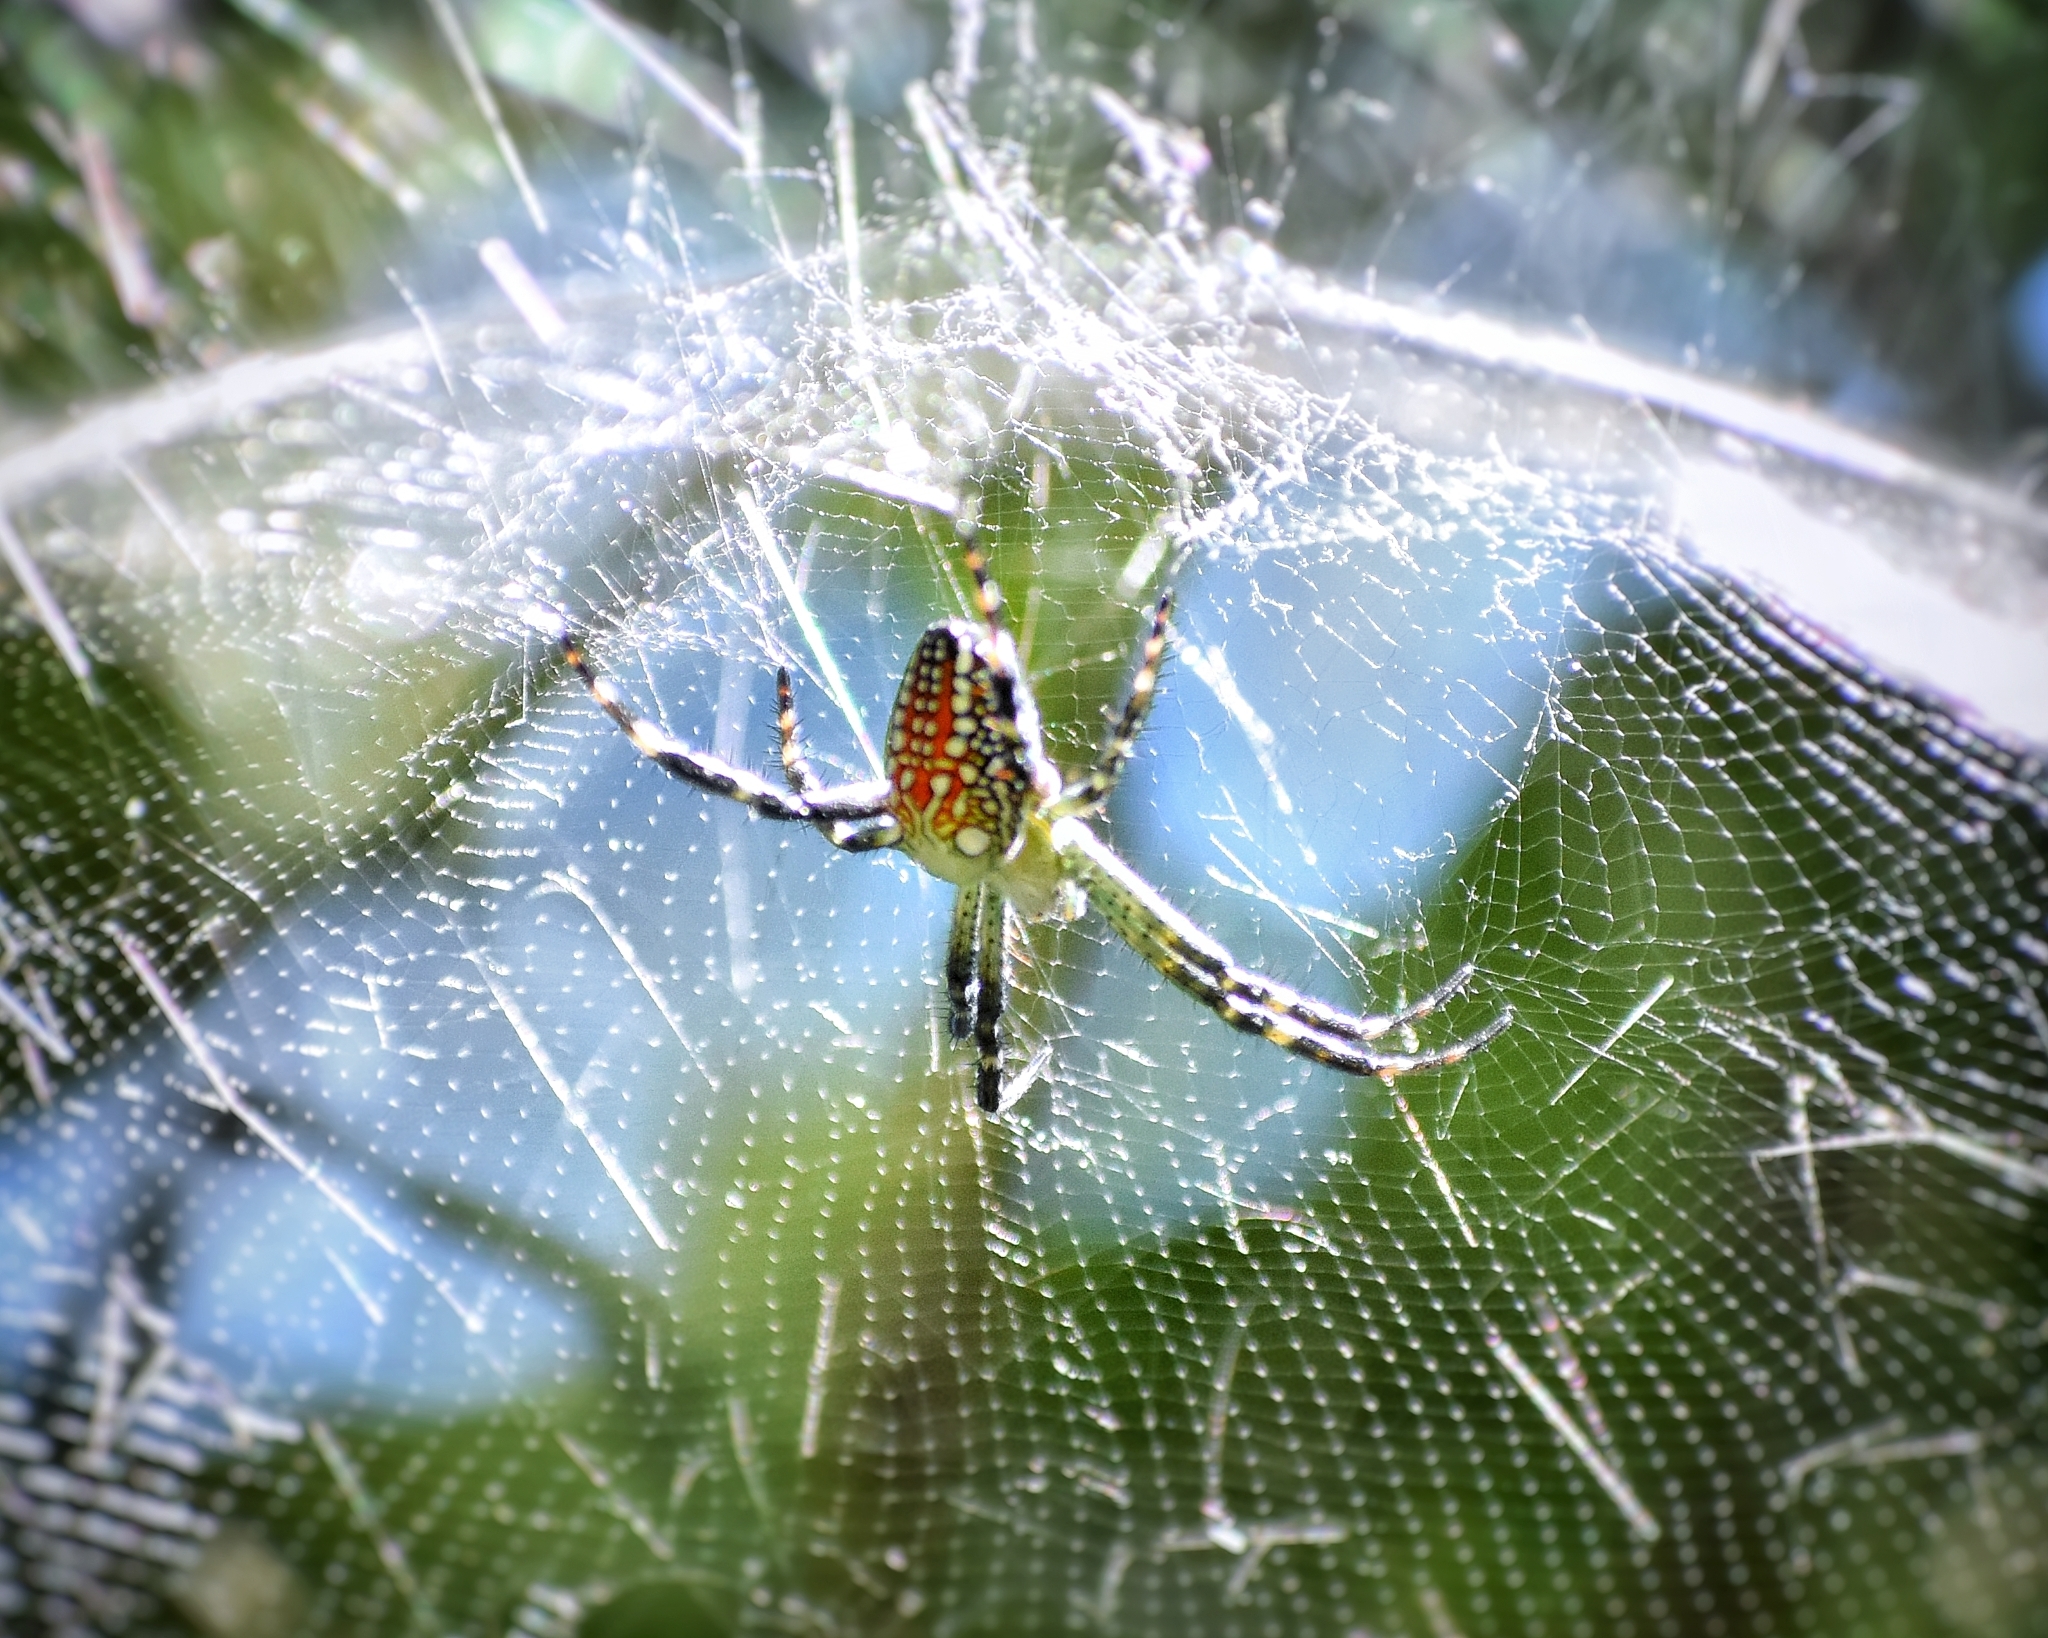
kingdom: Chromista
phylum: Ochrophyta
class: Dictyochophyceae
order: Pedinellales
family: Cyrtophoraceae
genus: Cyrtophora
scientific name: Cyrtophora moluccensis
